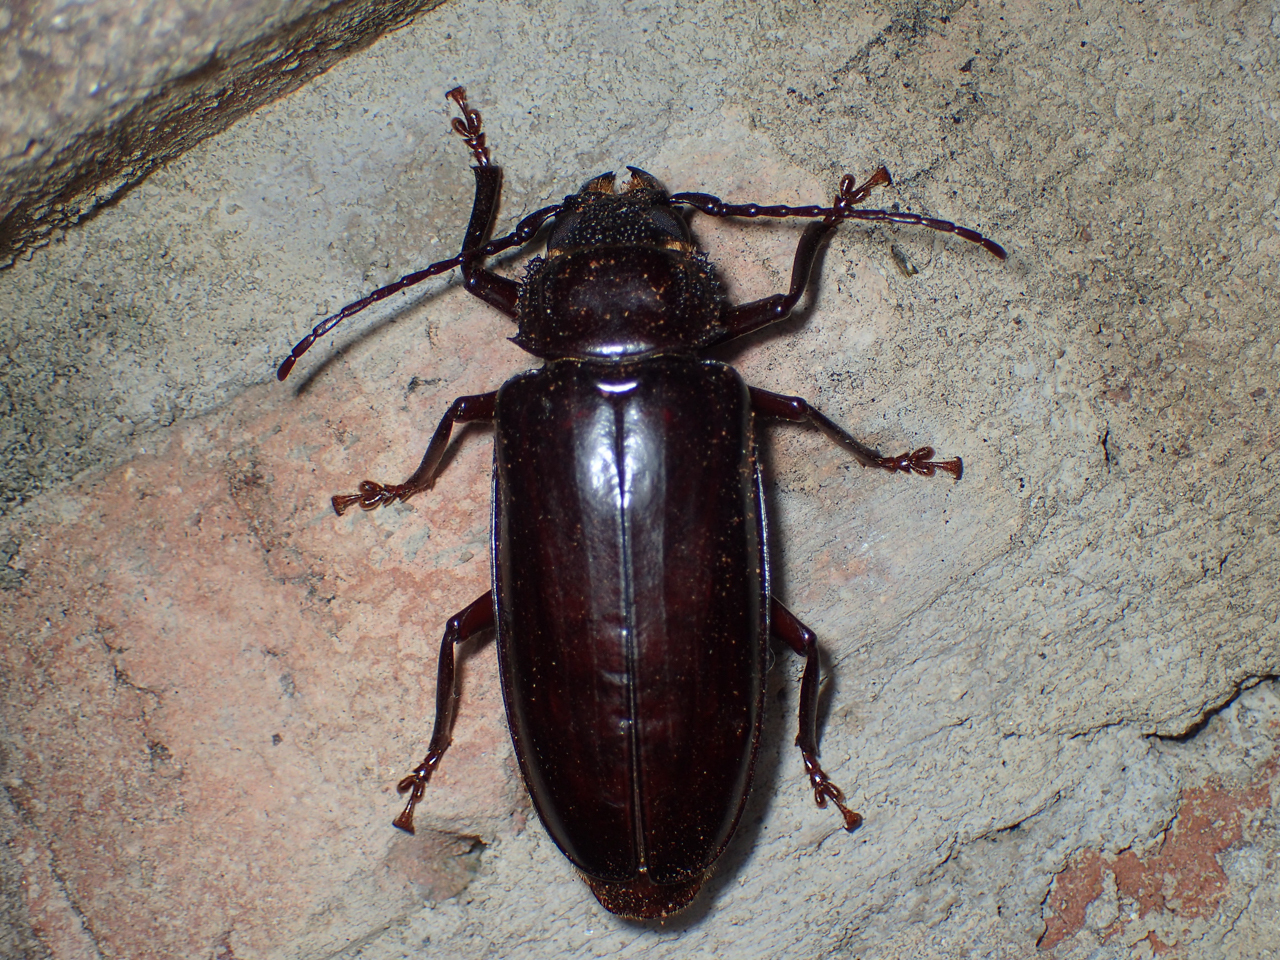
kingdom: Animalia
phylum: Arthropoda
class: Insecta
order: Coleoptera
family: Cerambycidae
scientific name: Cerambycidae
